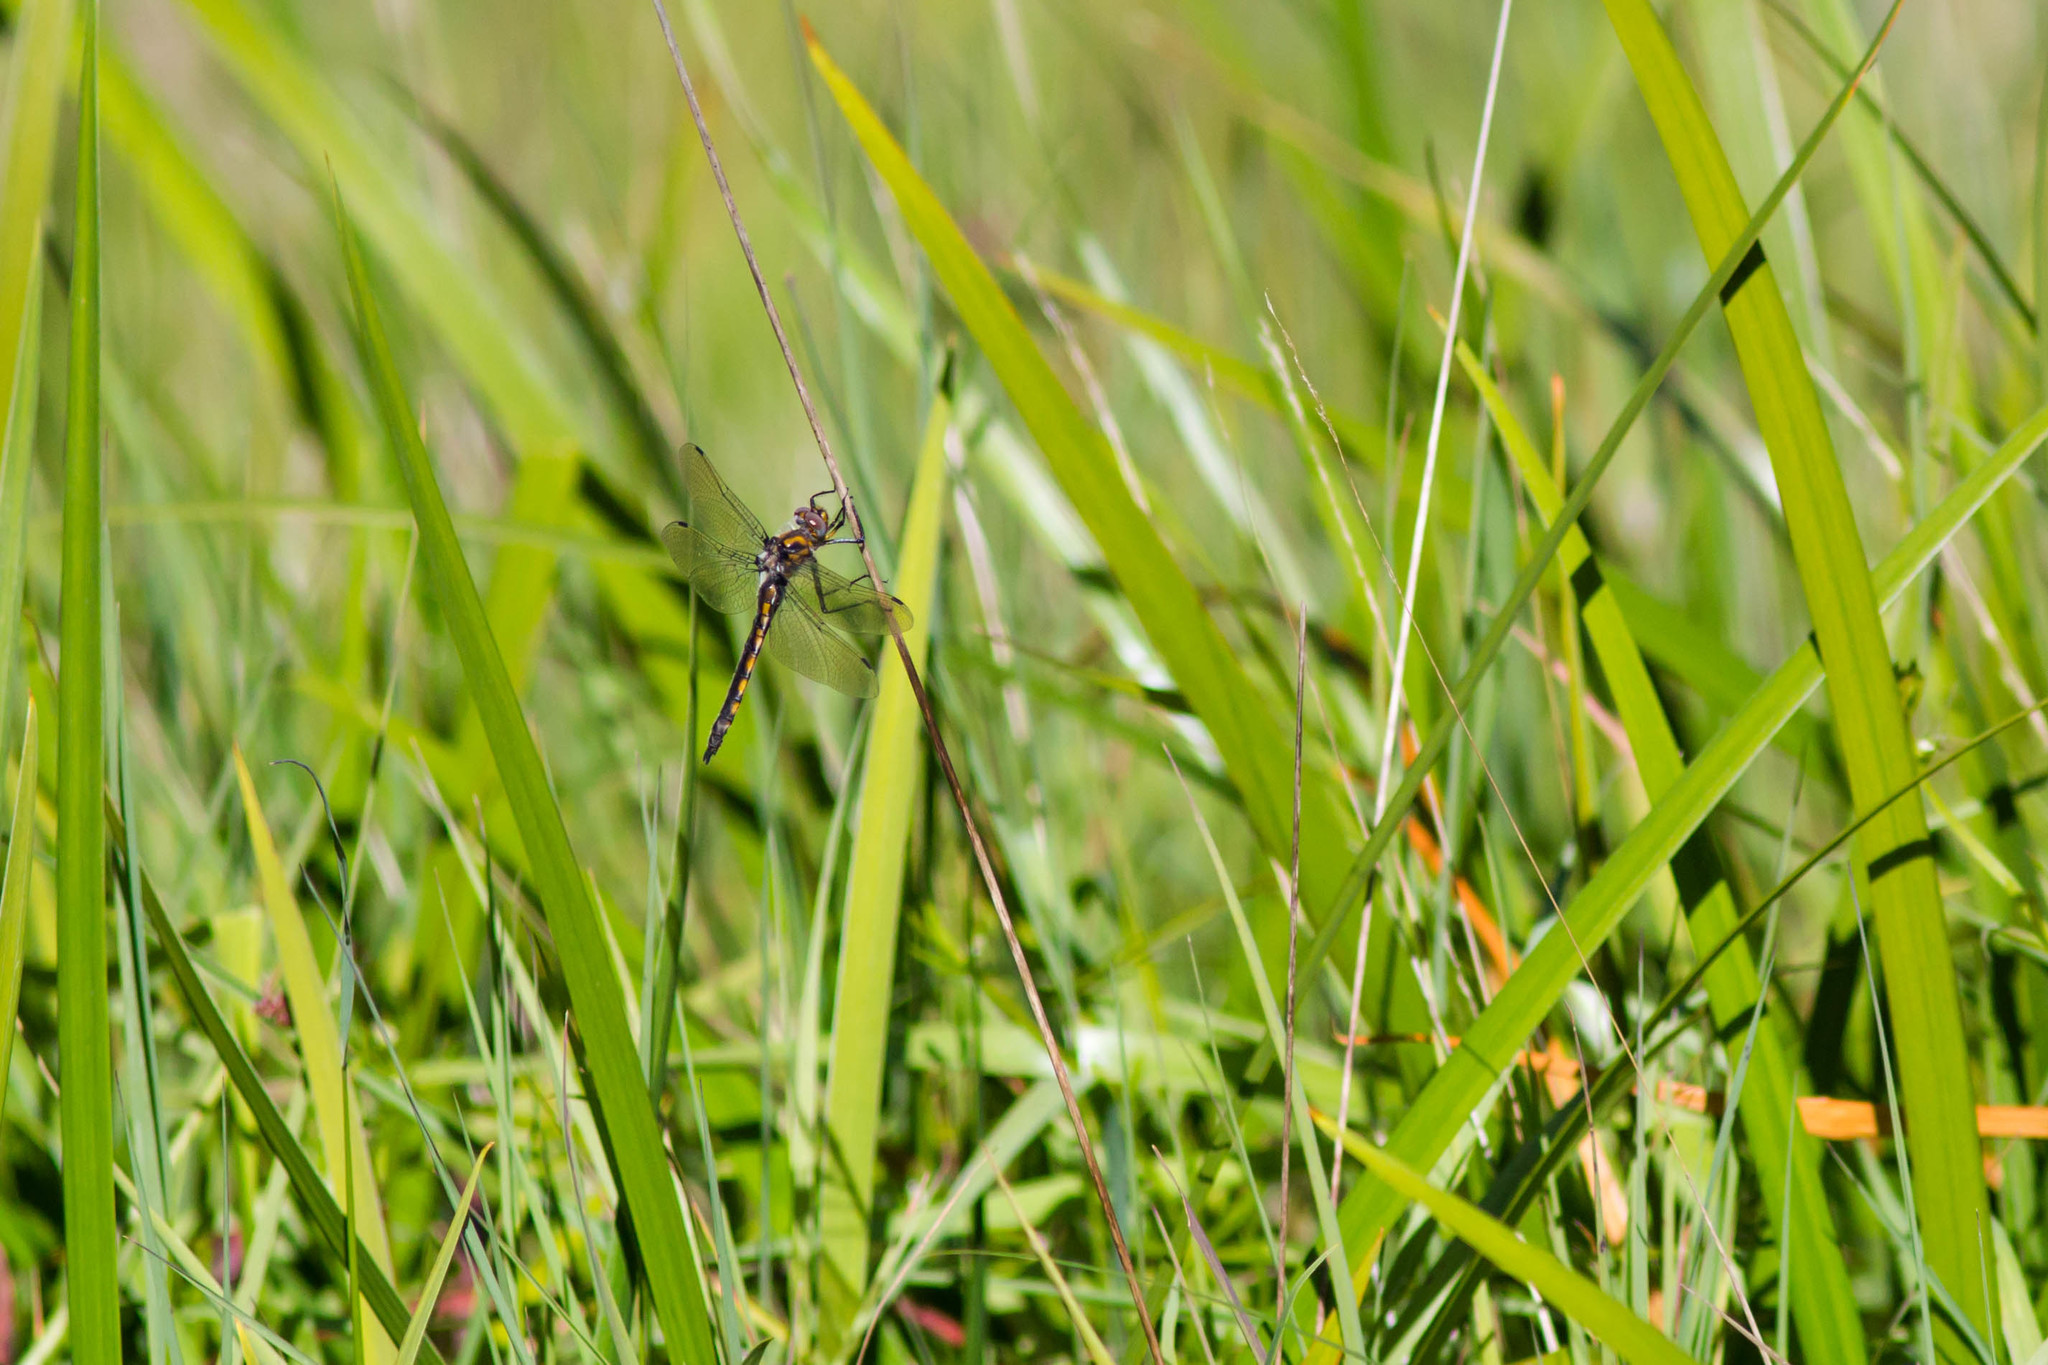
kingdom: Animalia
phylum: Arthropoda
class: Insecta
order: Odonata
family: Corduliidae
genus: Epitheca
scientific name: Epitheca canis
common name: Beaverpond baskettail
